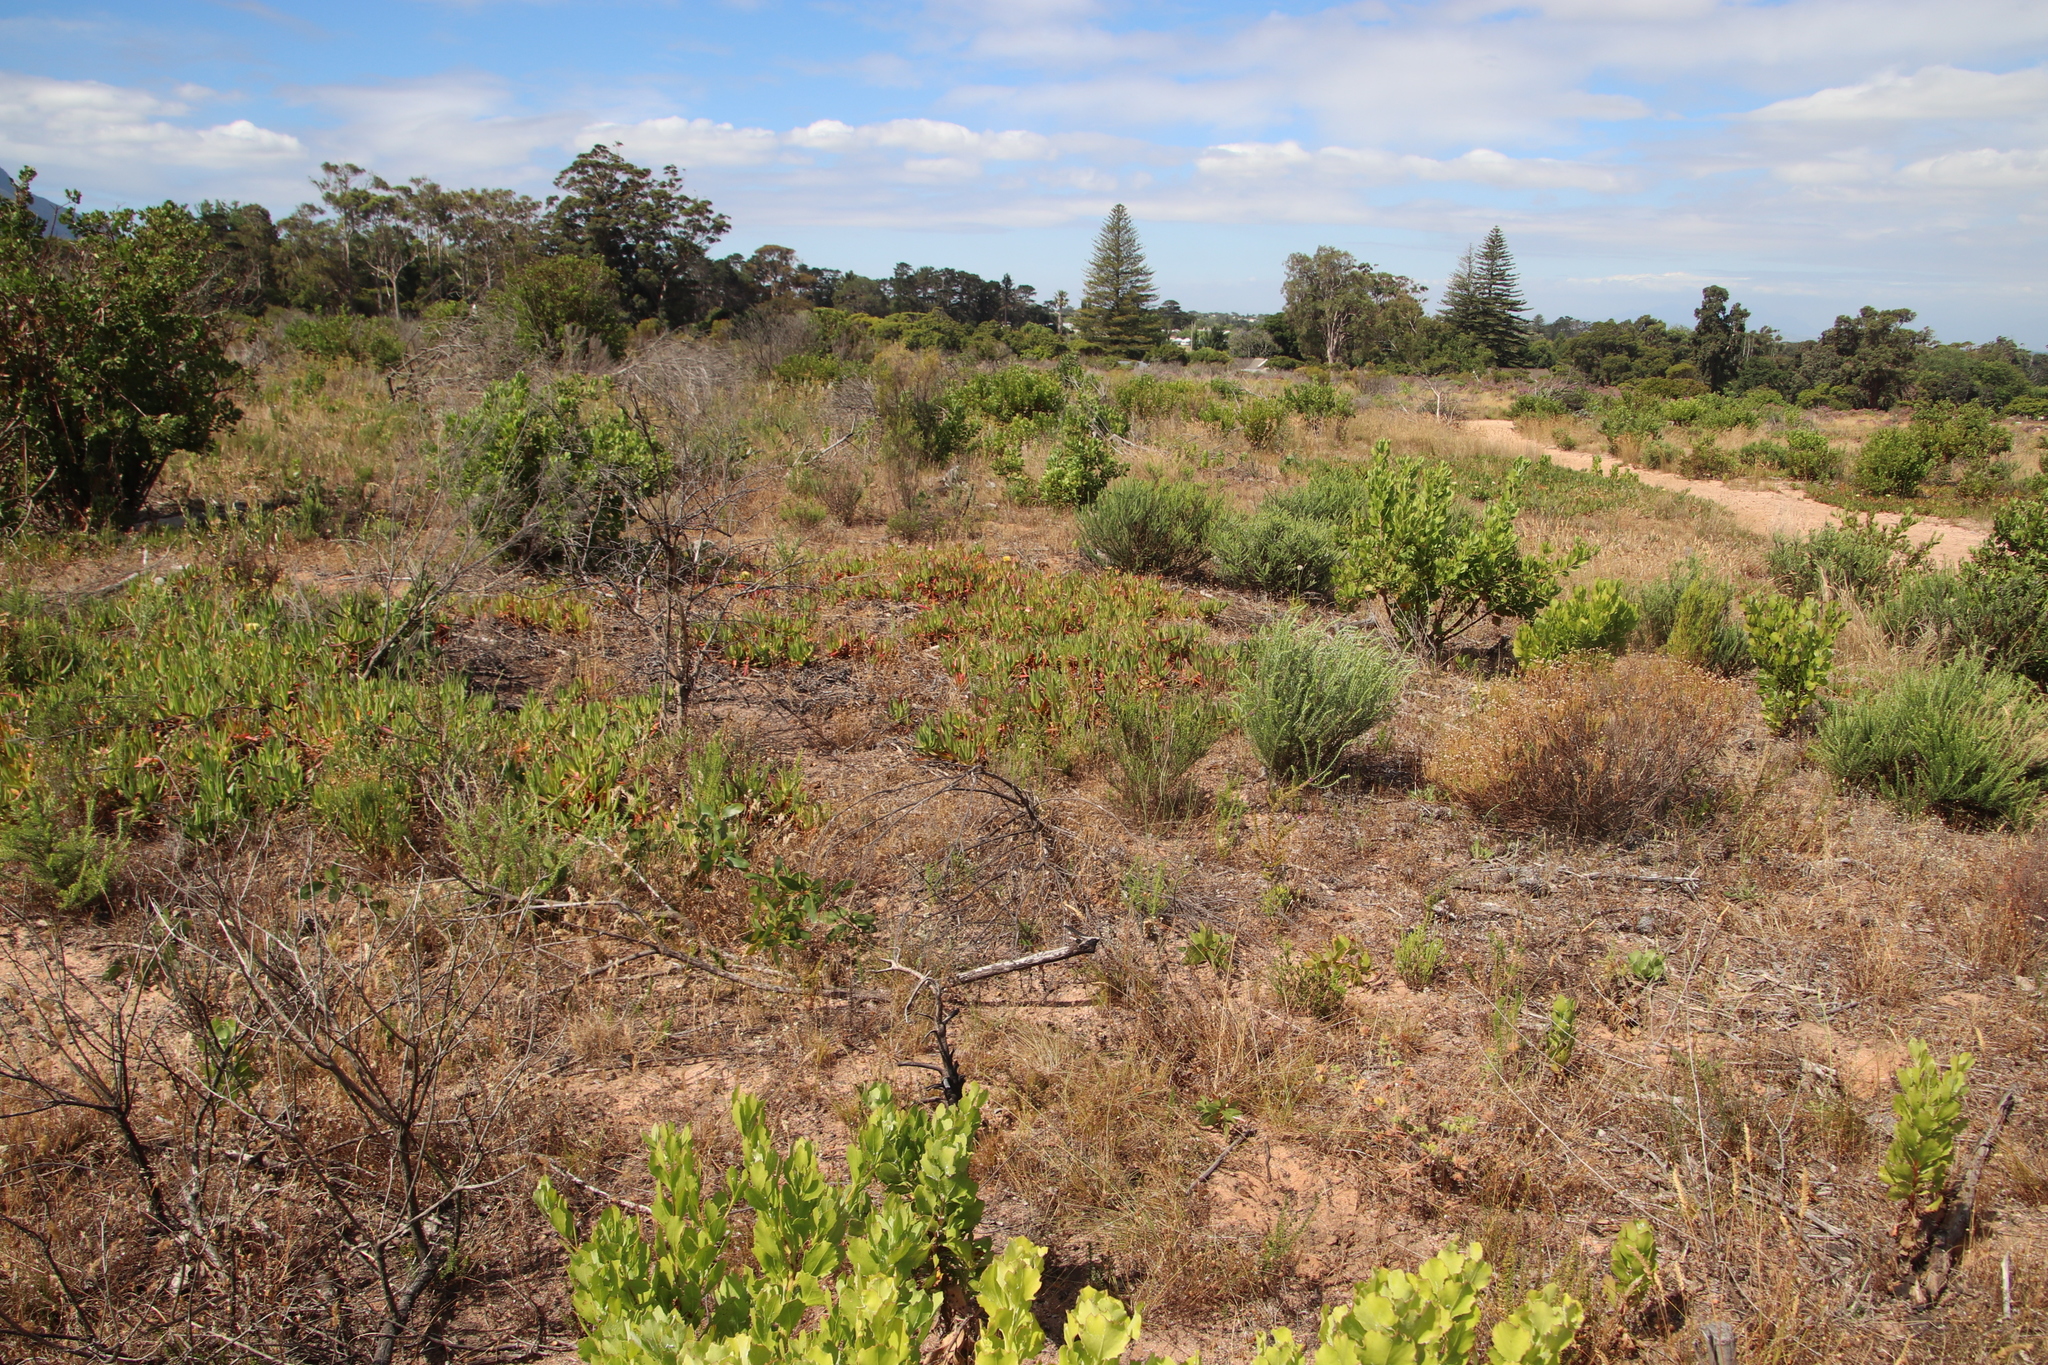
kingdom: Plantae
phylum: Tracheophyta
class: Magnoliopsida
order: Caryophyllales
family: Aizoaceae
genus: Carpobrotus
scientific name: Carpobrotus edulis
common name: Hottentot-fig
